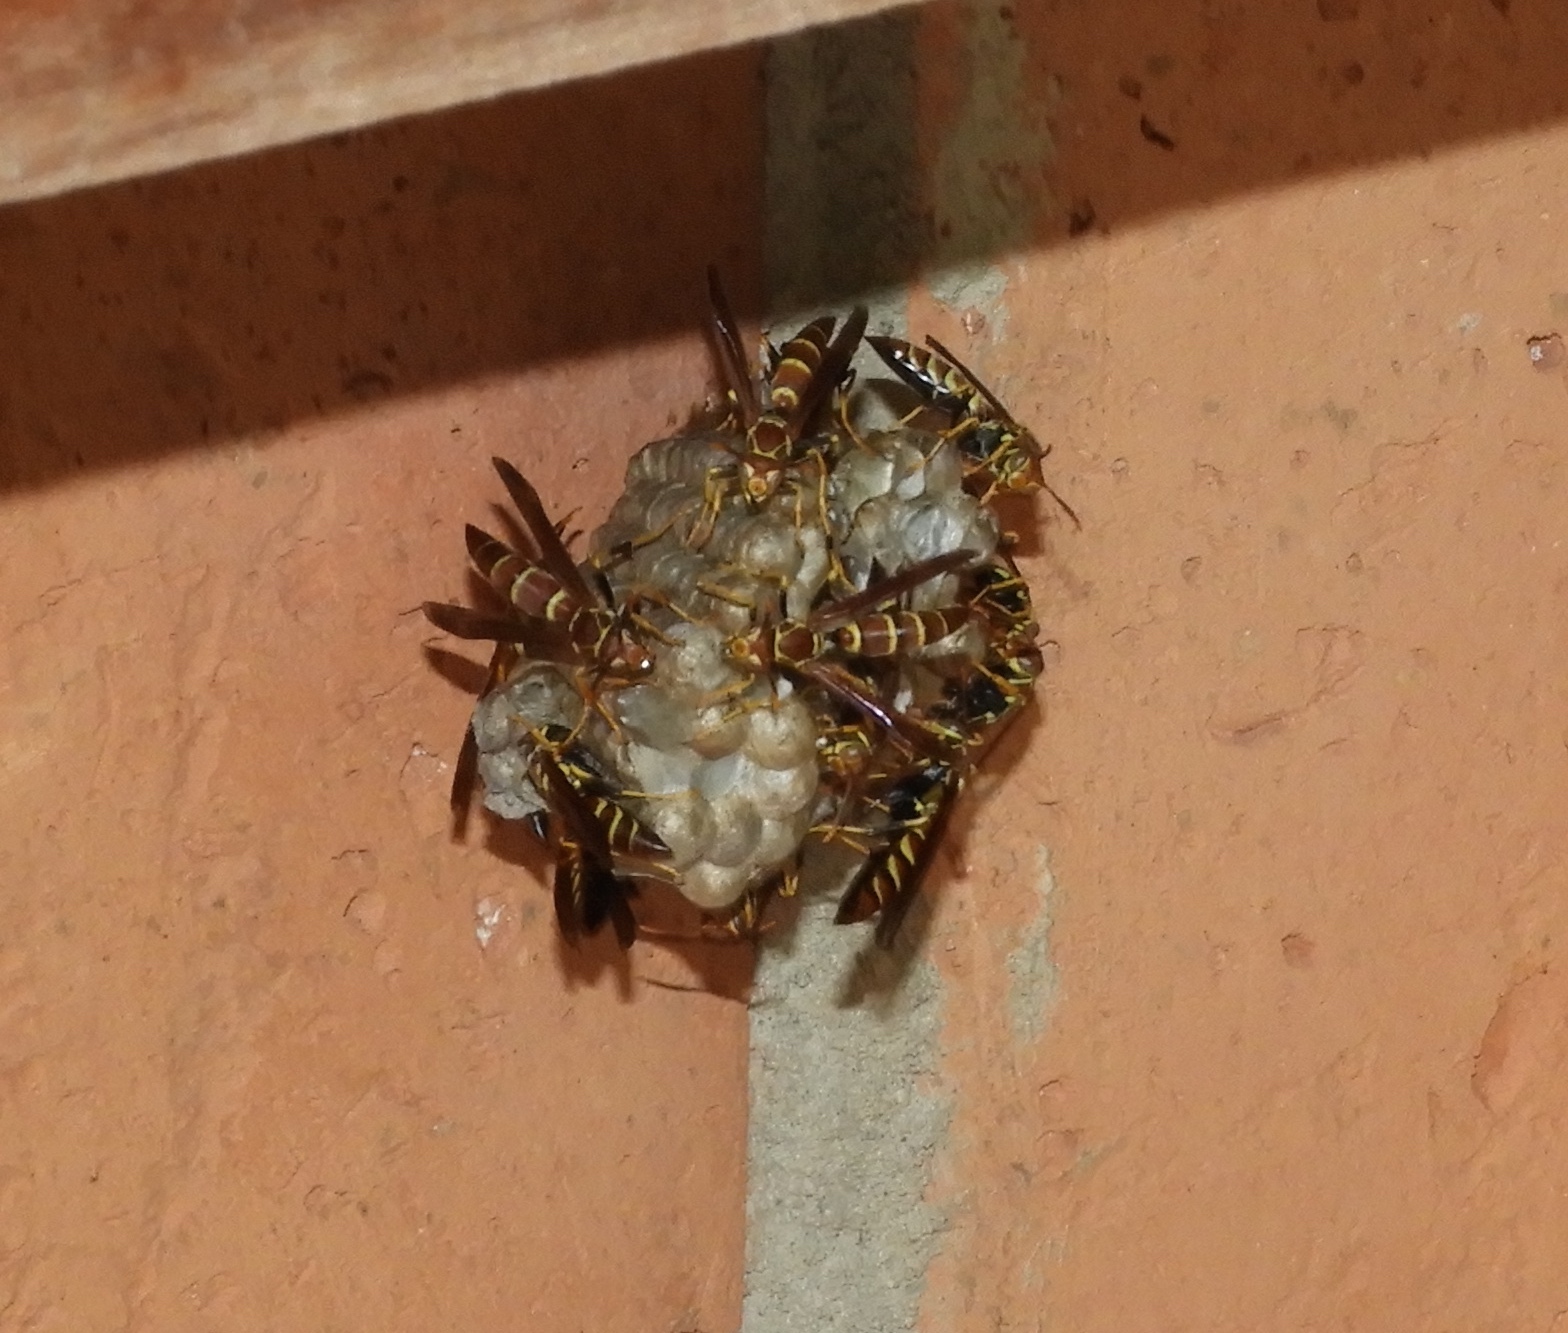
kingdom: Animalia
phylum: Arthropoda
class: Insecta
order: Hymenoptera
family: Eumenidae
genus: Polistes
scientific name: Polistes instabilis
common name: Unstable paper wasp
